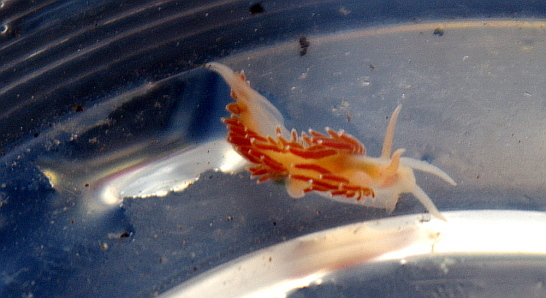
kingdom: Animalia
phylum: Mollusca
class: Gastropoda
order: Nudibranchia
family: Coryphellidae
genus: Coryphella
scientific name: Coryphella verrucosa
